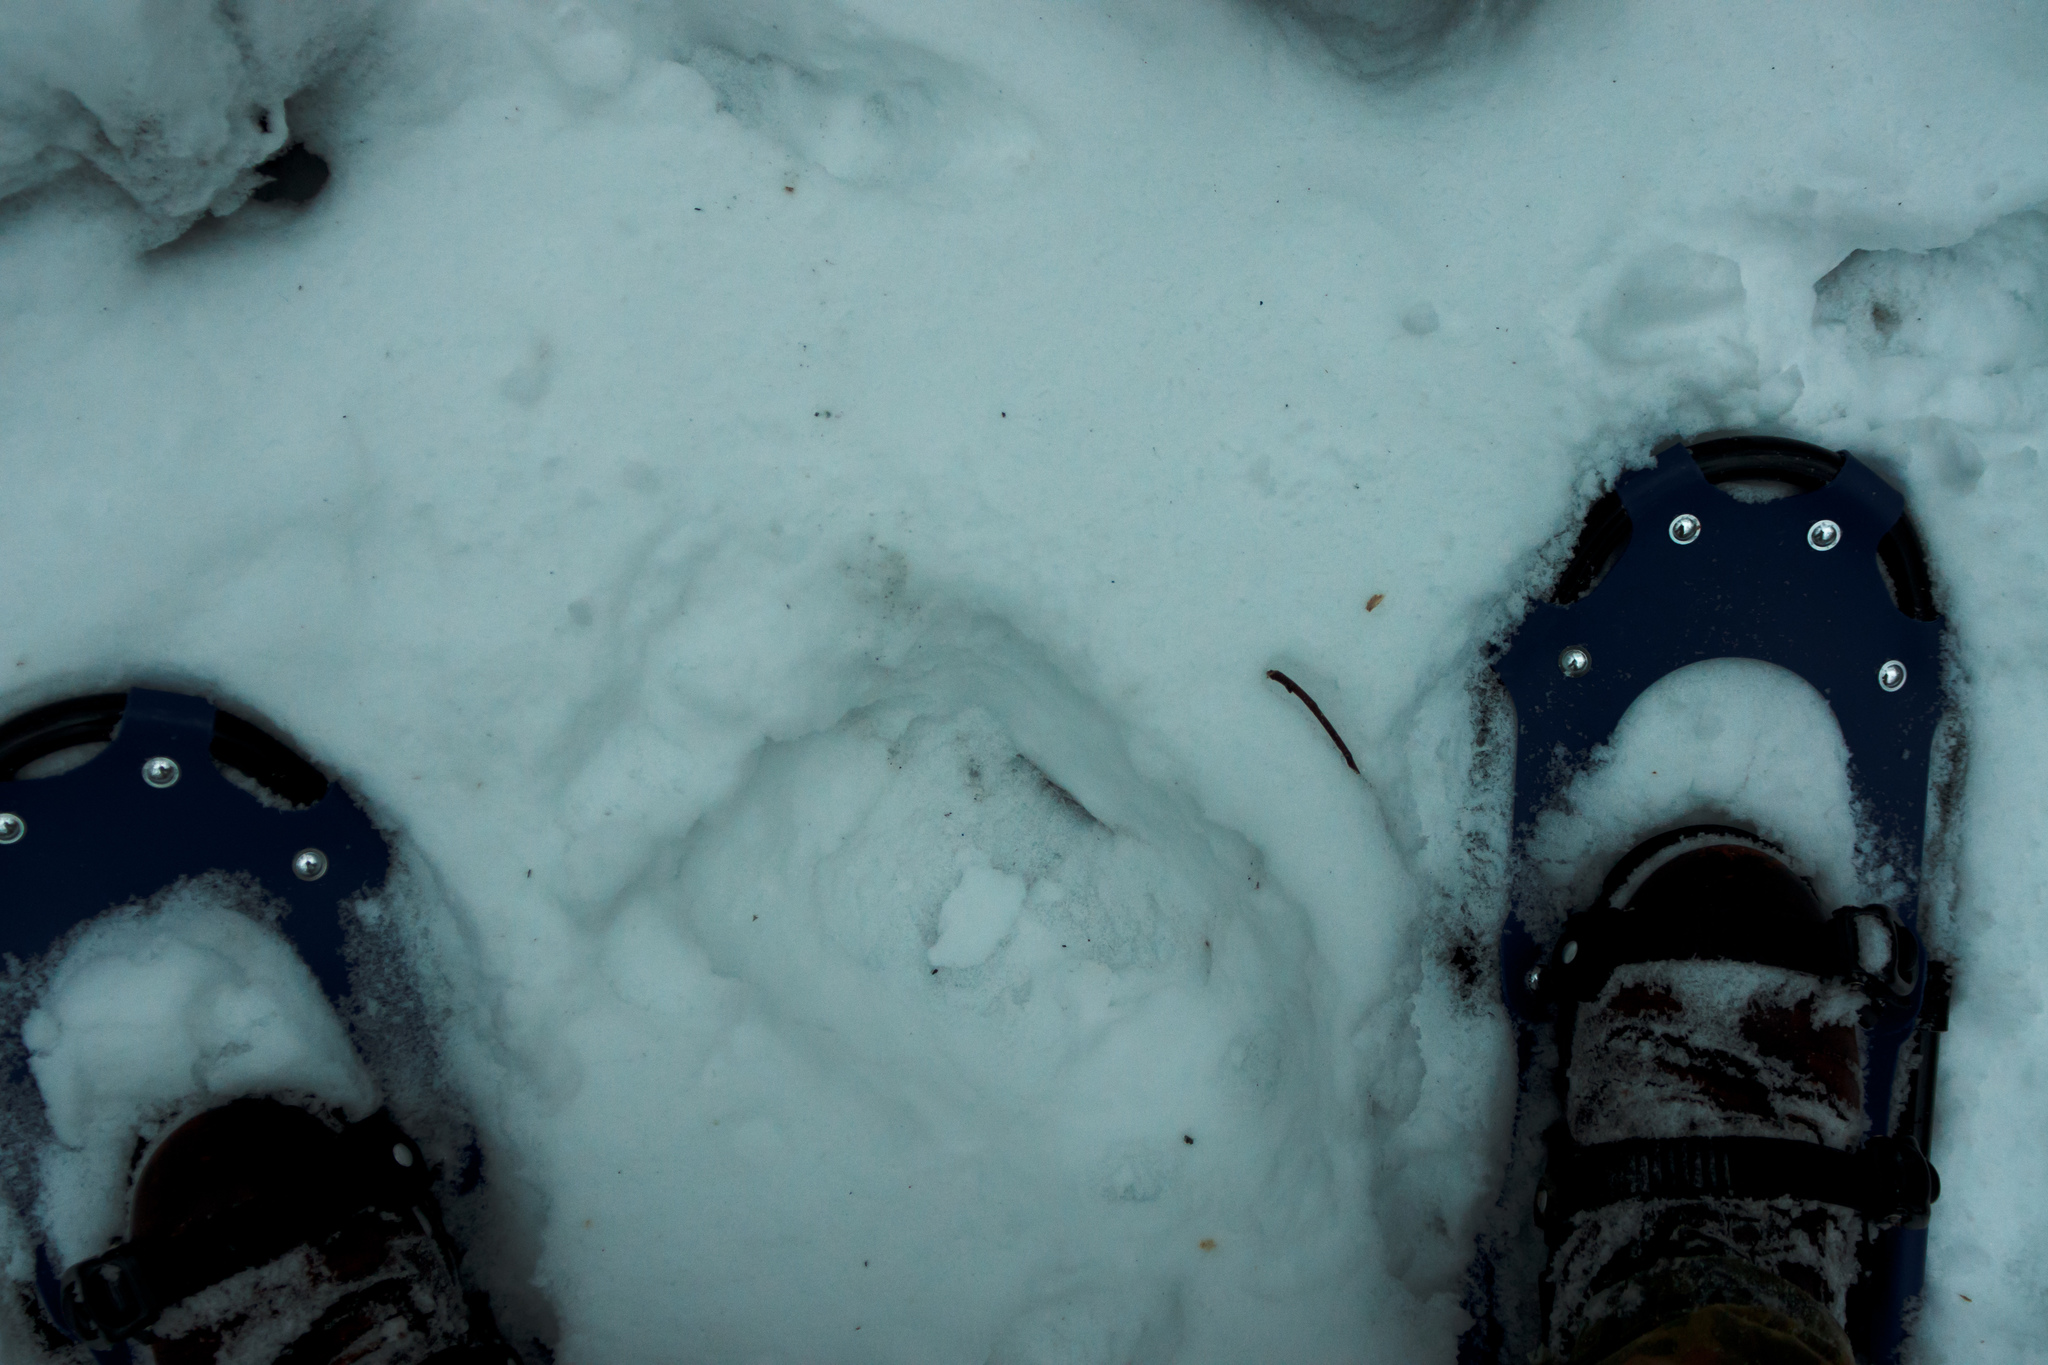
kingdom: Animalia
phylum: Chordata
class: Mammalia
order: Artiodactyla
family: Cervidae
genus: Alces
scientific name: Alces alces
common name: Moose
